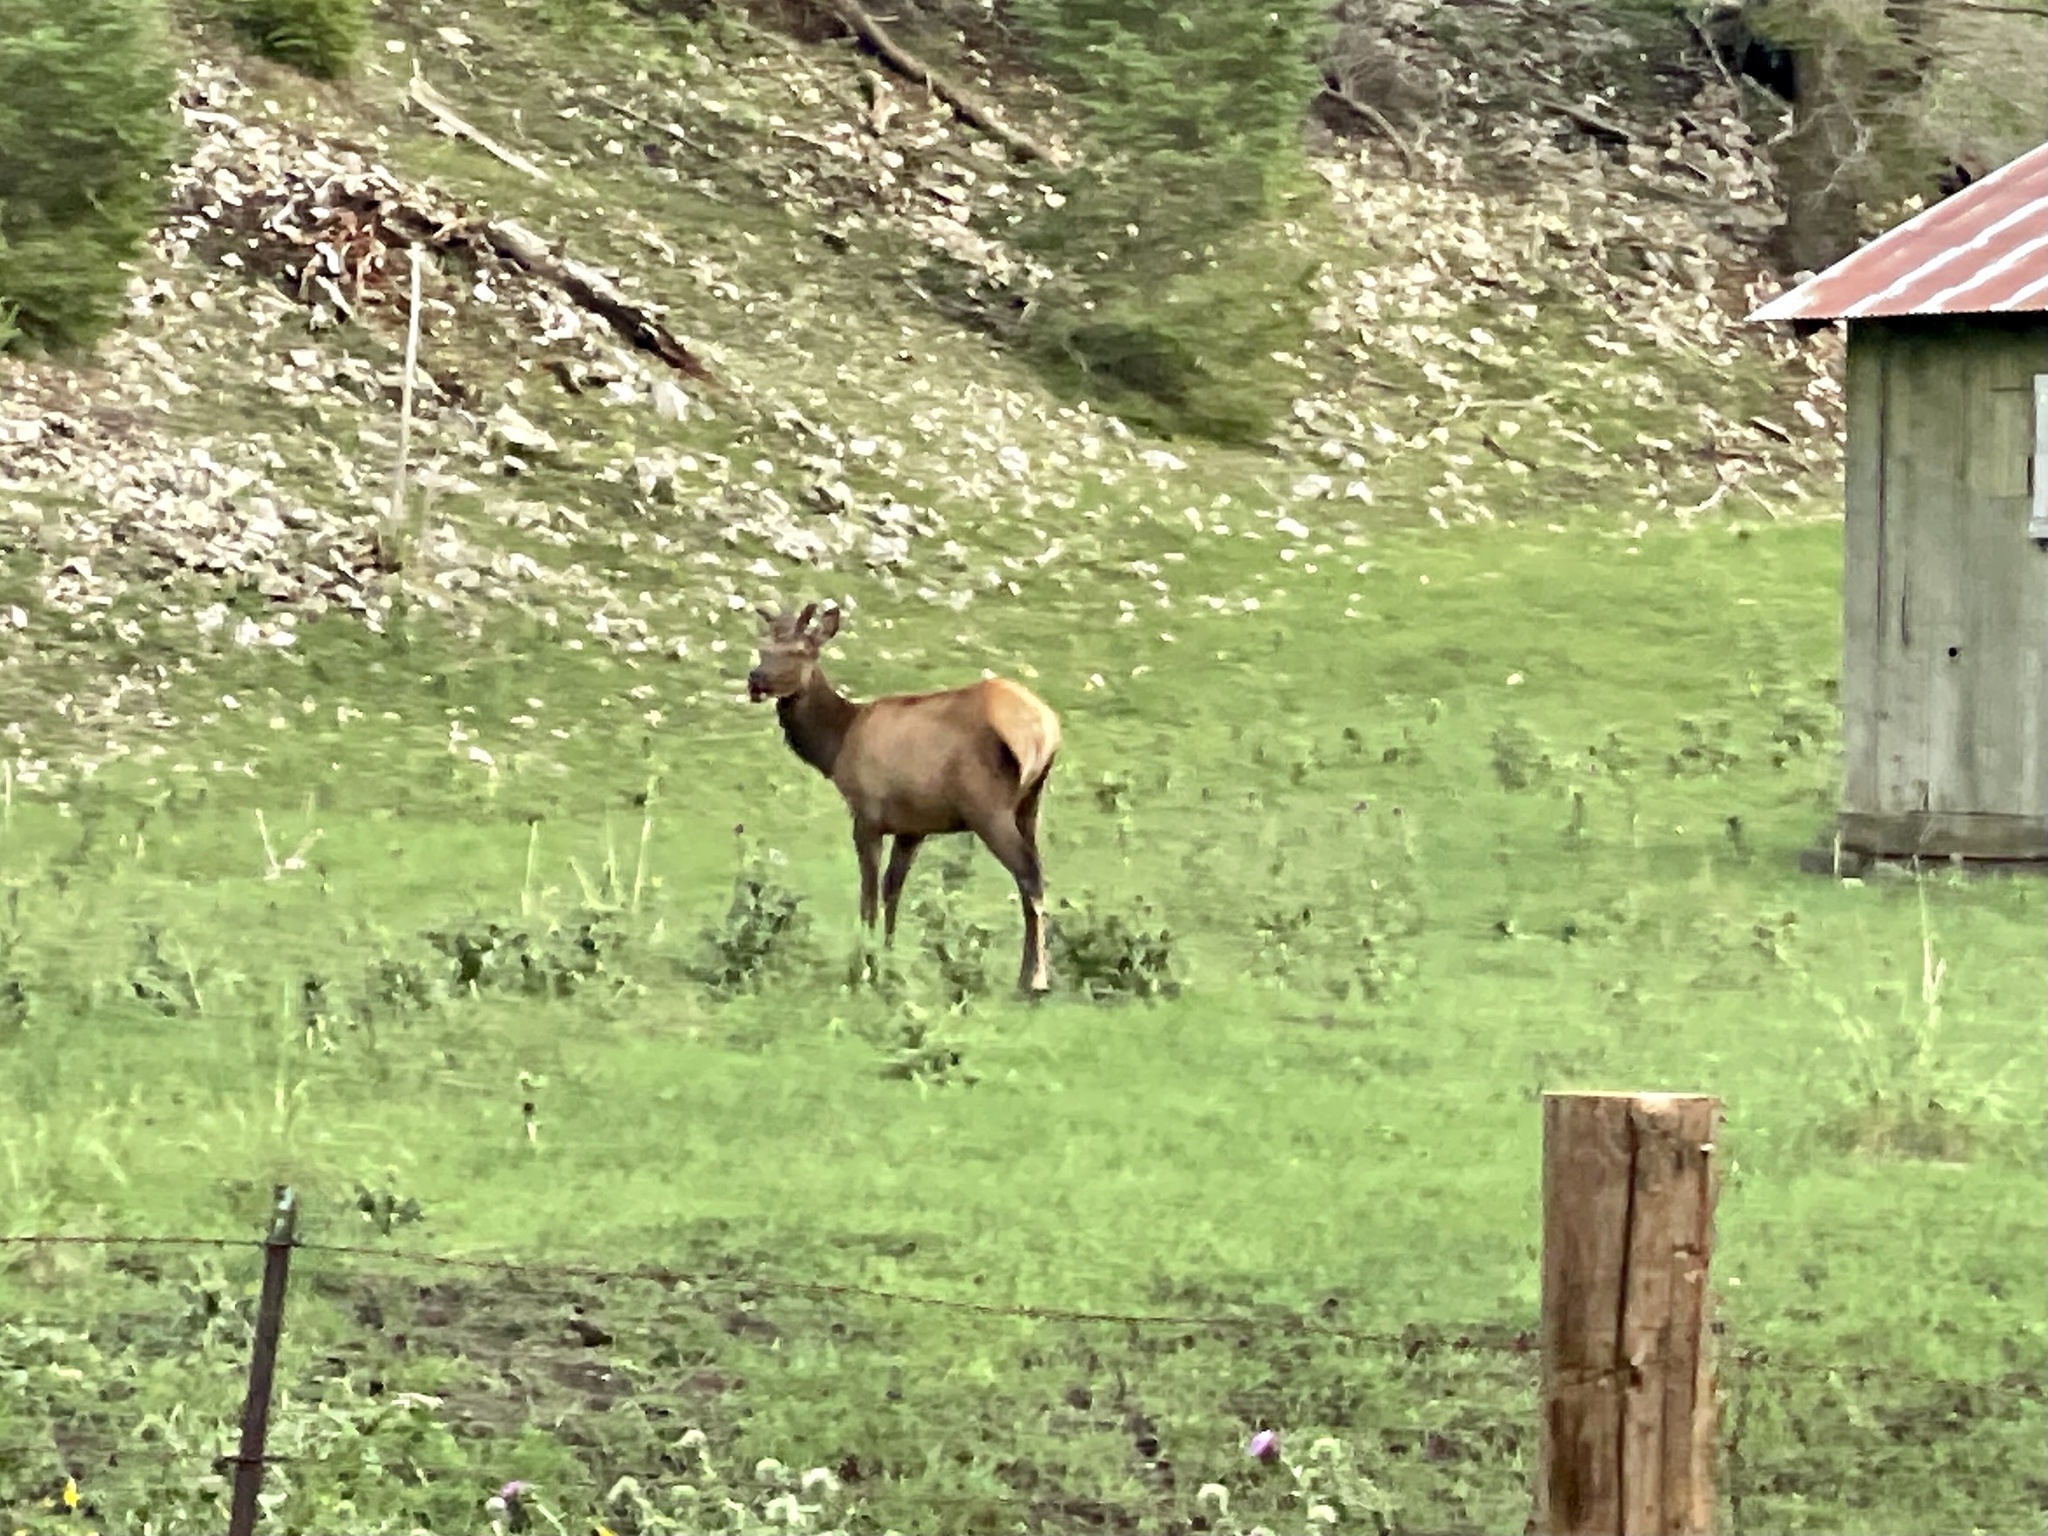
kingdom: Animalia
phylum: Chordata
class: Mammalia
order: Artiodactyla
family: Cervidae
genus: Cervus
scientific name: Cervus elaphus
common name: Red deer
